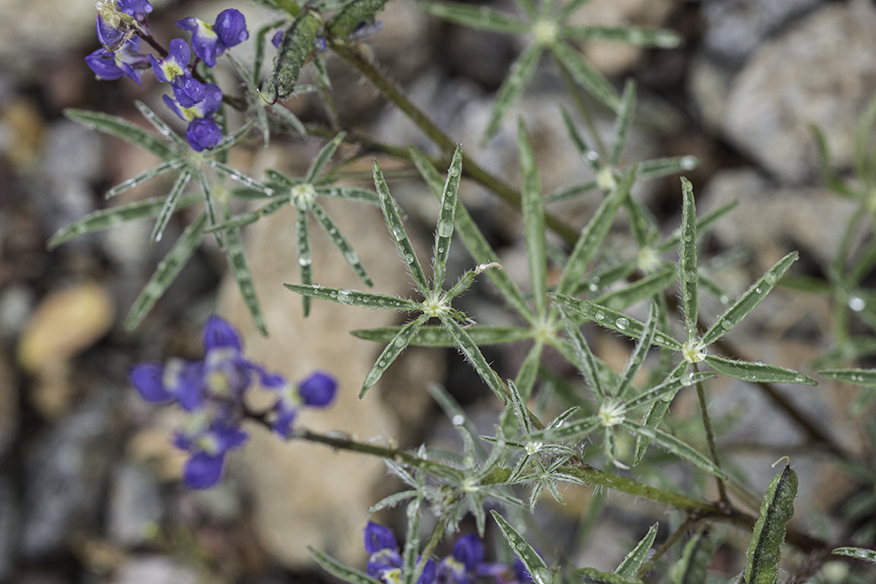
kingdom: Plantae
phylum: Tracheophyta
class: Magnoliopsida
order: Fabales
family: Fabaceae
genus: Lupinus
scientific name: Lupinus sparsiflorus
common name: Coulter's lupine
